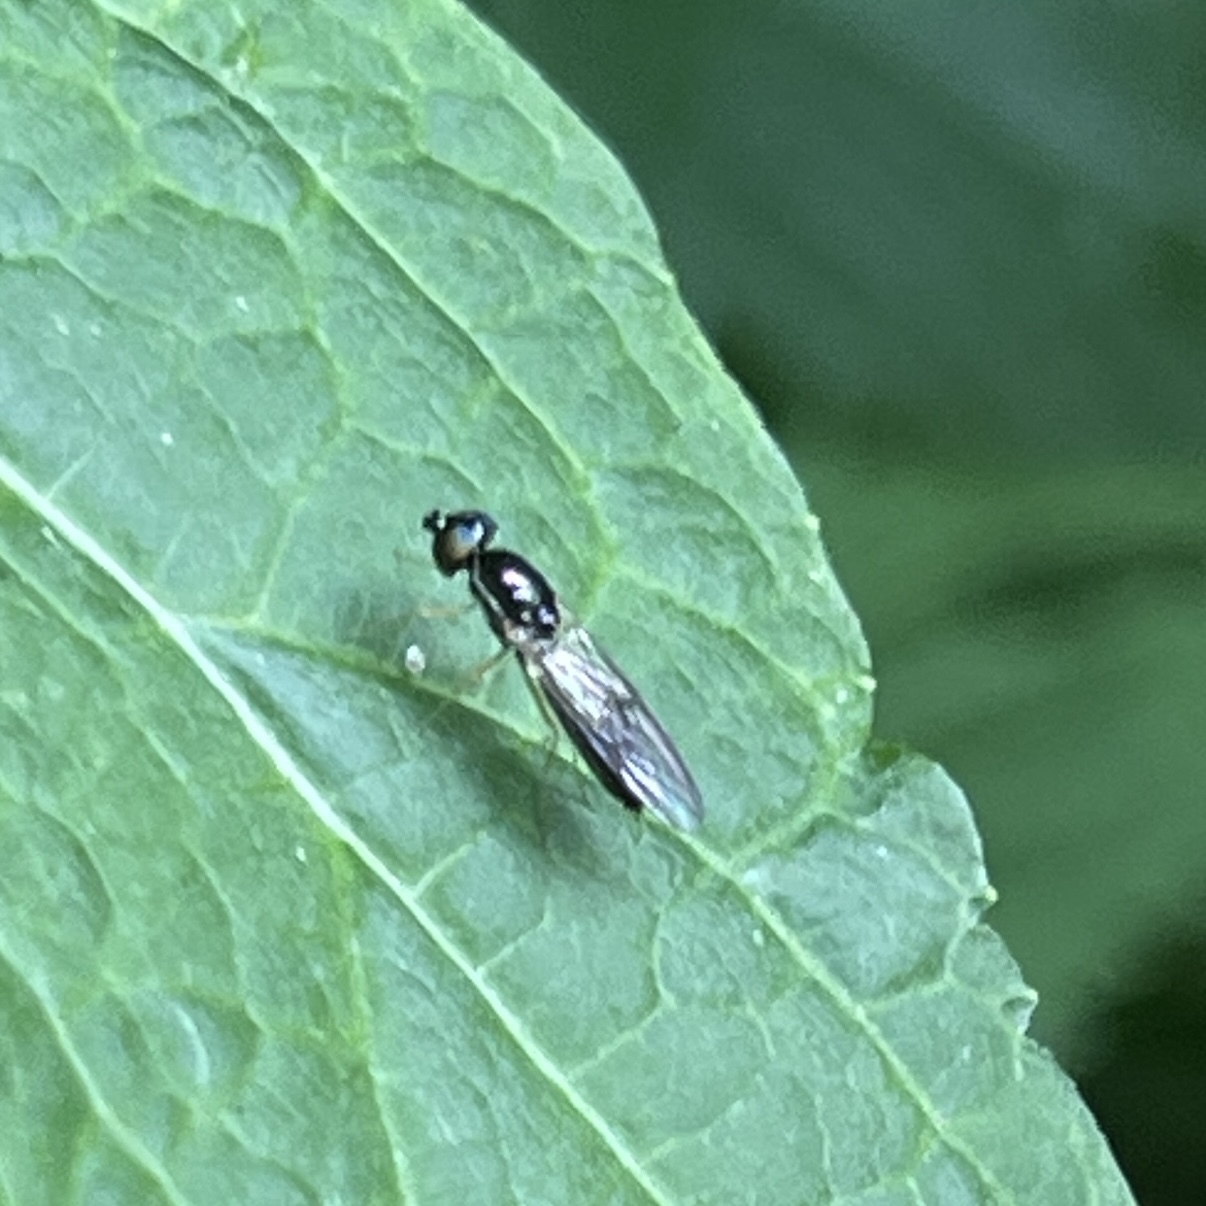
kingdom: Animalia
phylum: Arthropoda
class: Insecta
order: Diptera
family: Stratiomyidae
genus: Sargus
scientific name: Sargus decorus
